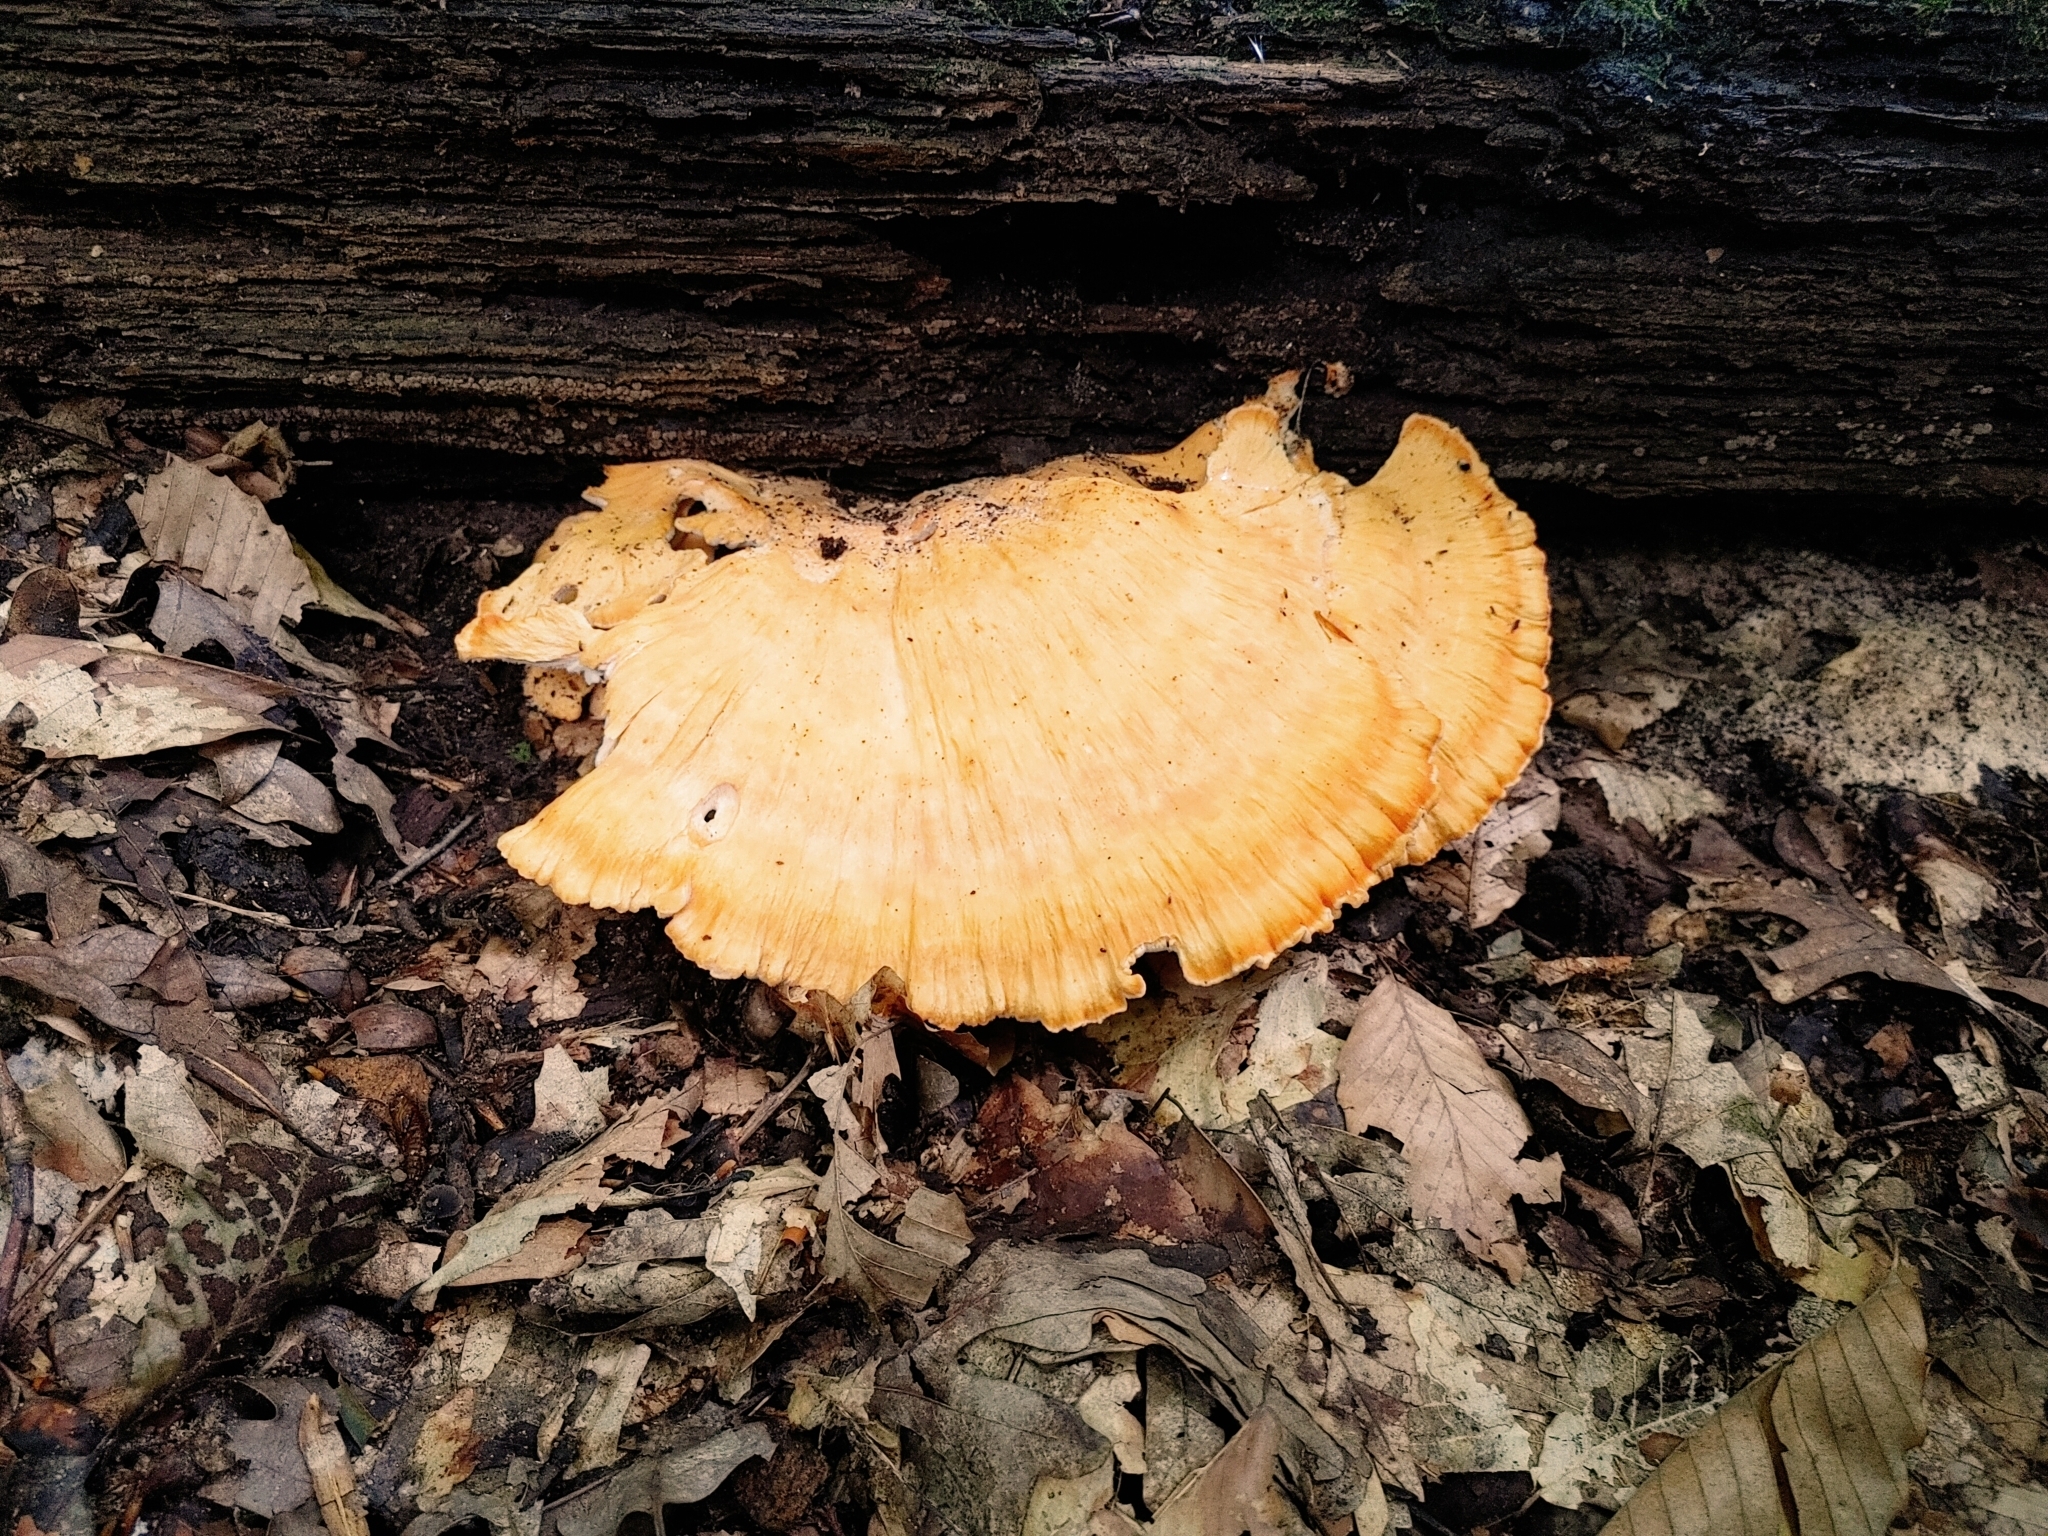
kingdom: Fungi
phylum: Basidiomycota
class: Agaricomycetes
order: Polyporales
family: Laetiporaceae
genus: Laetiporus
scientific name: Laetiporus sulphureus
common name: Chicken of the woods
